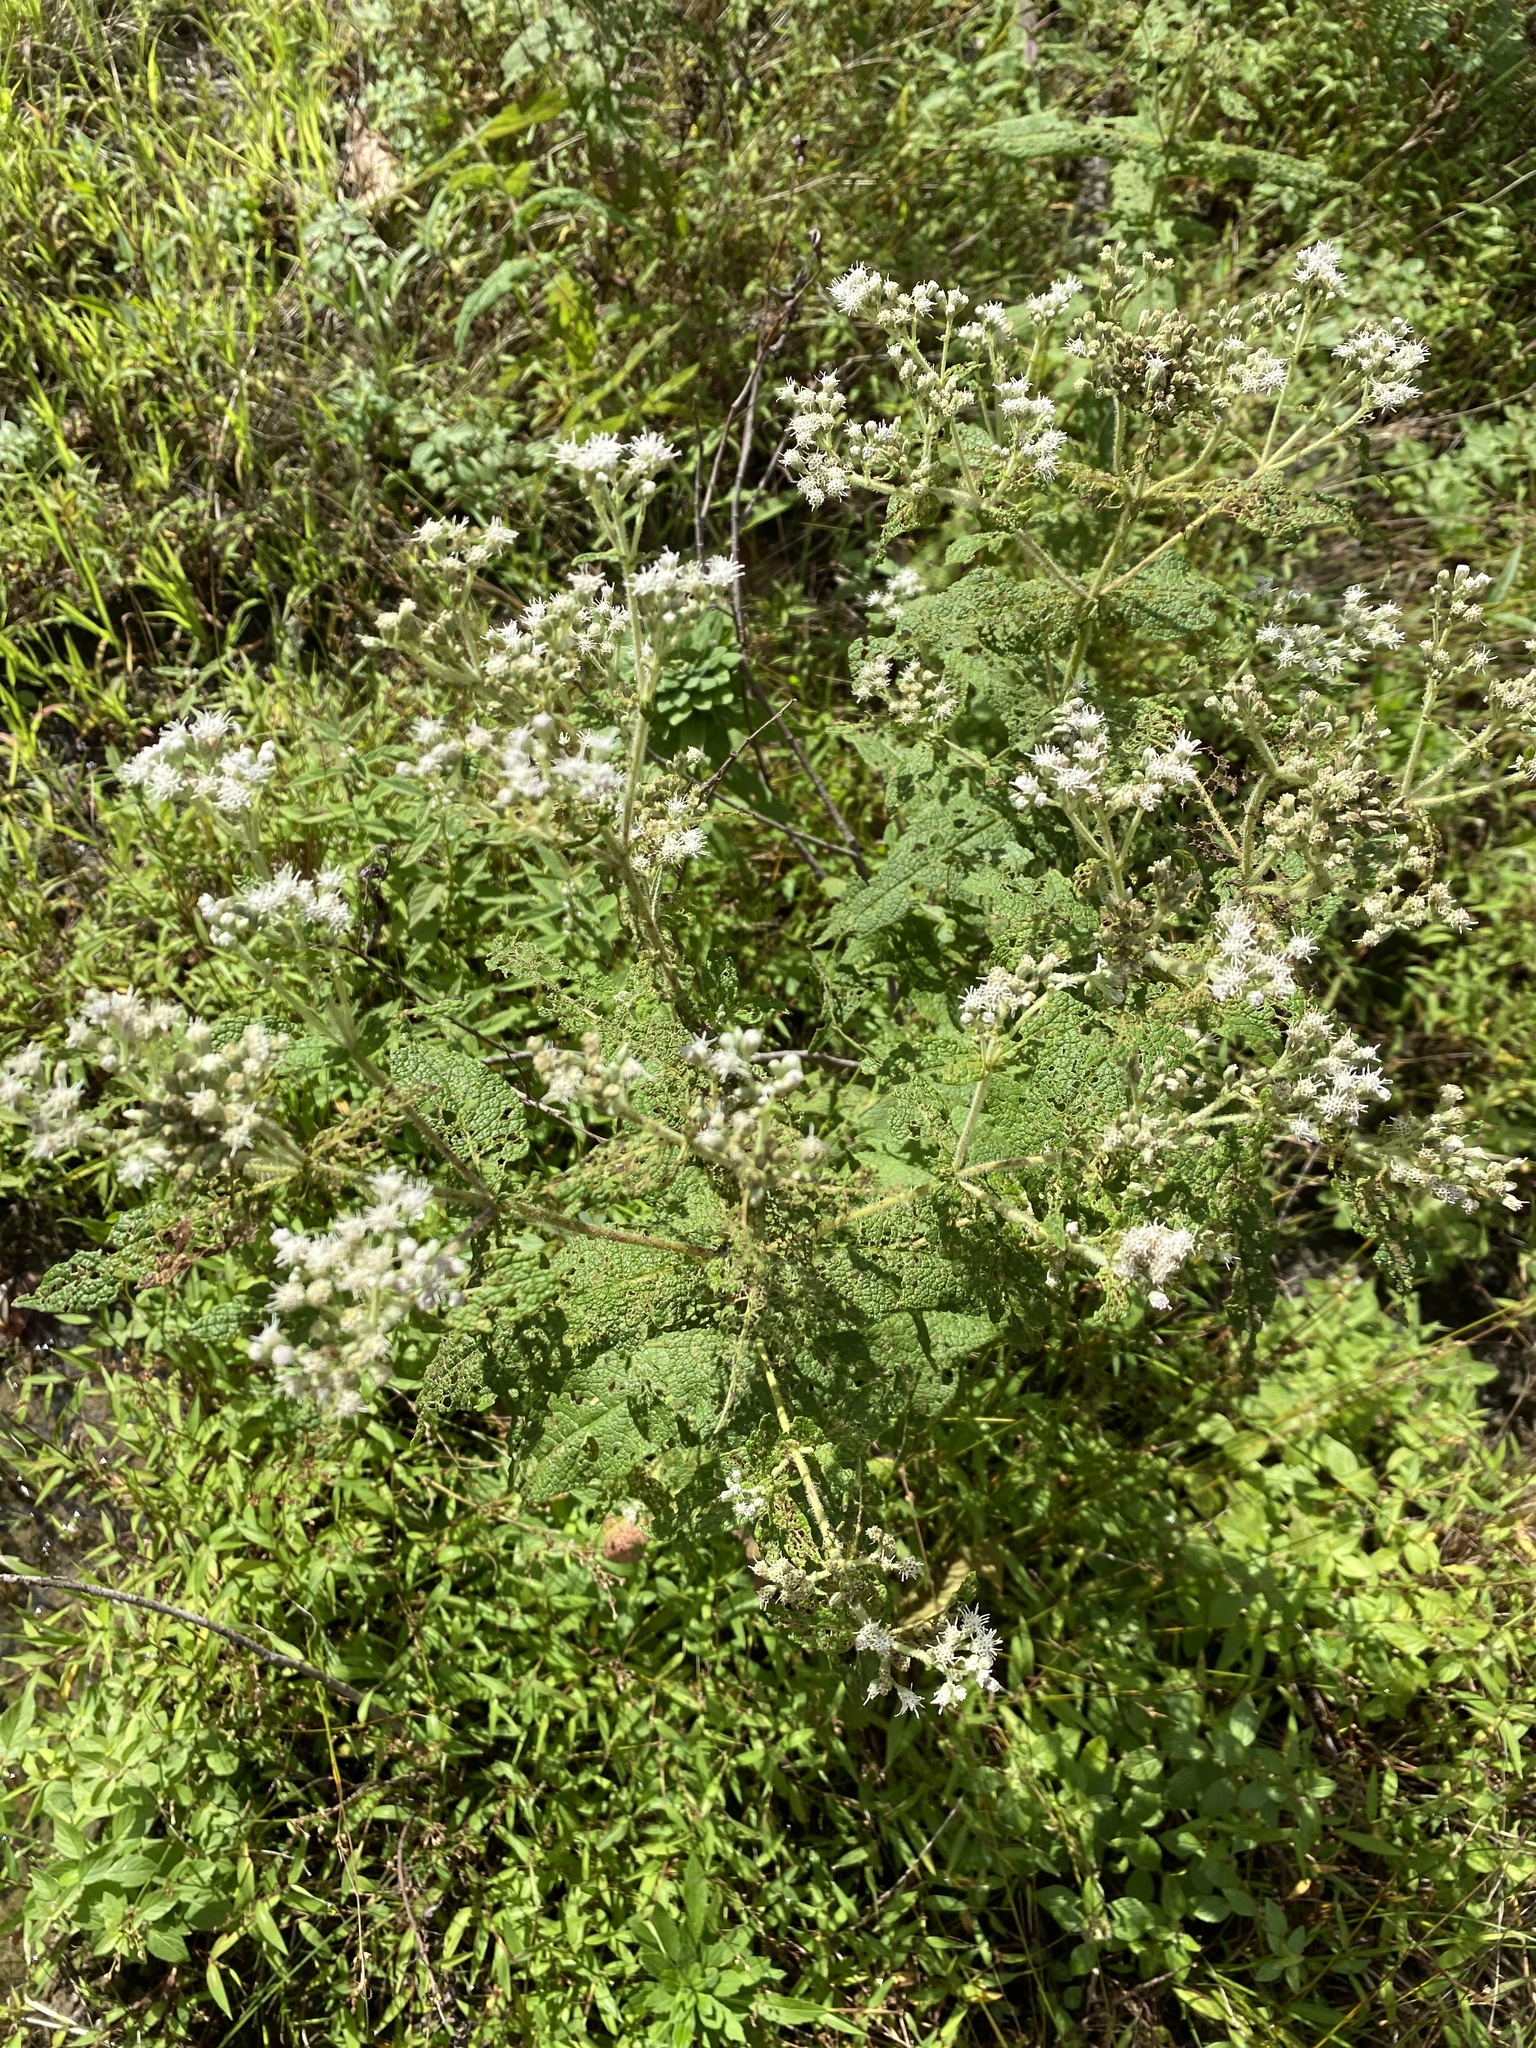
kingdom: Plantae
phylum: Tracheophyta
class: Magnoliopsida
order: Asterales
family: Asteraceae
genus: Eupatorium
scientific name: Eupatorium perfoliatum
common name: Boneset
